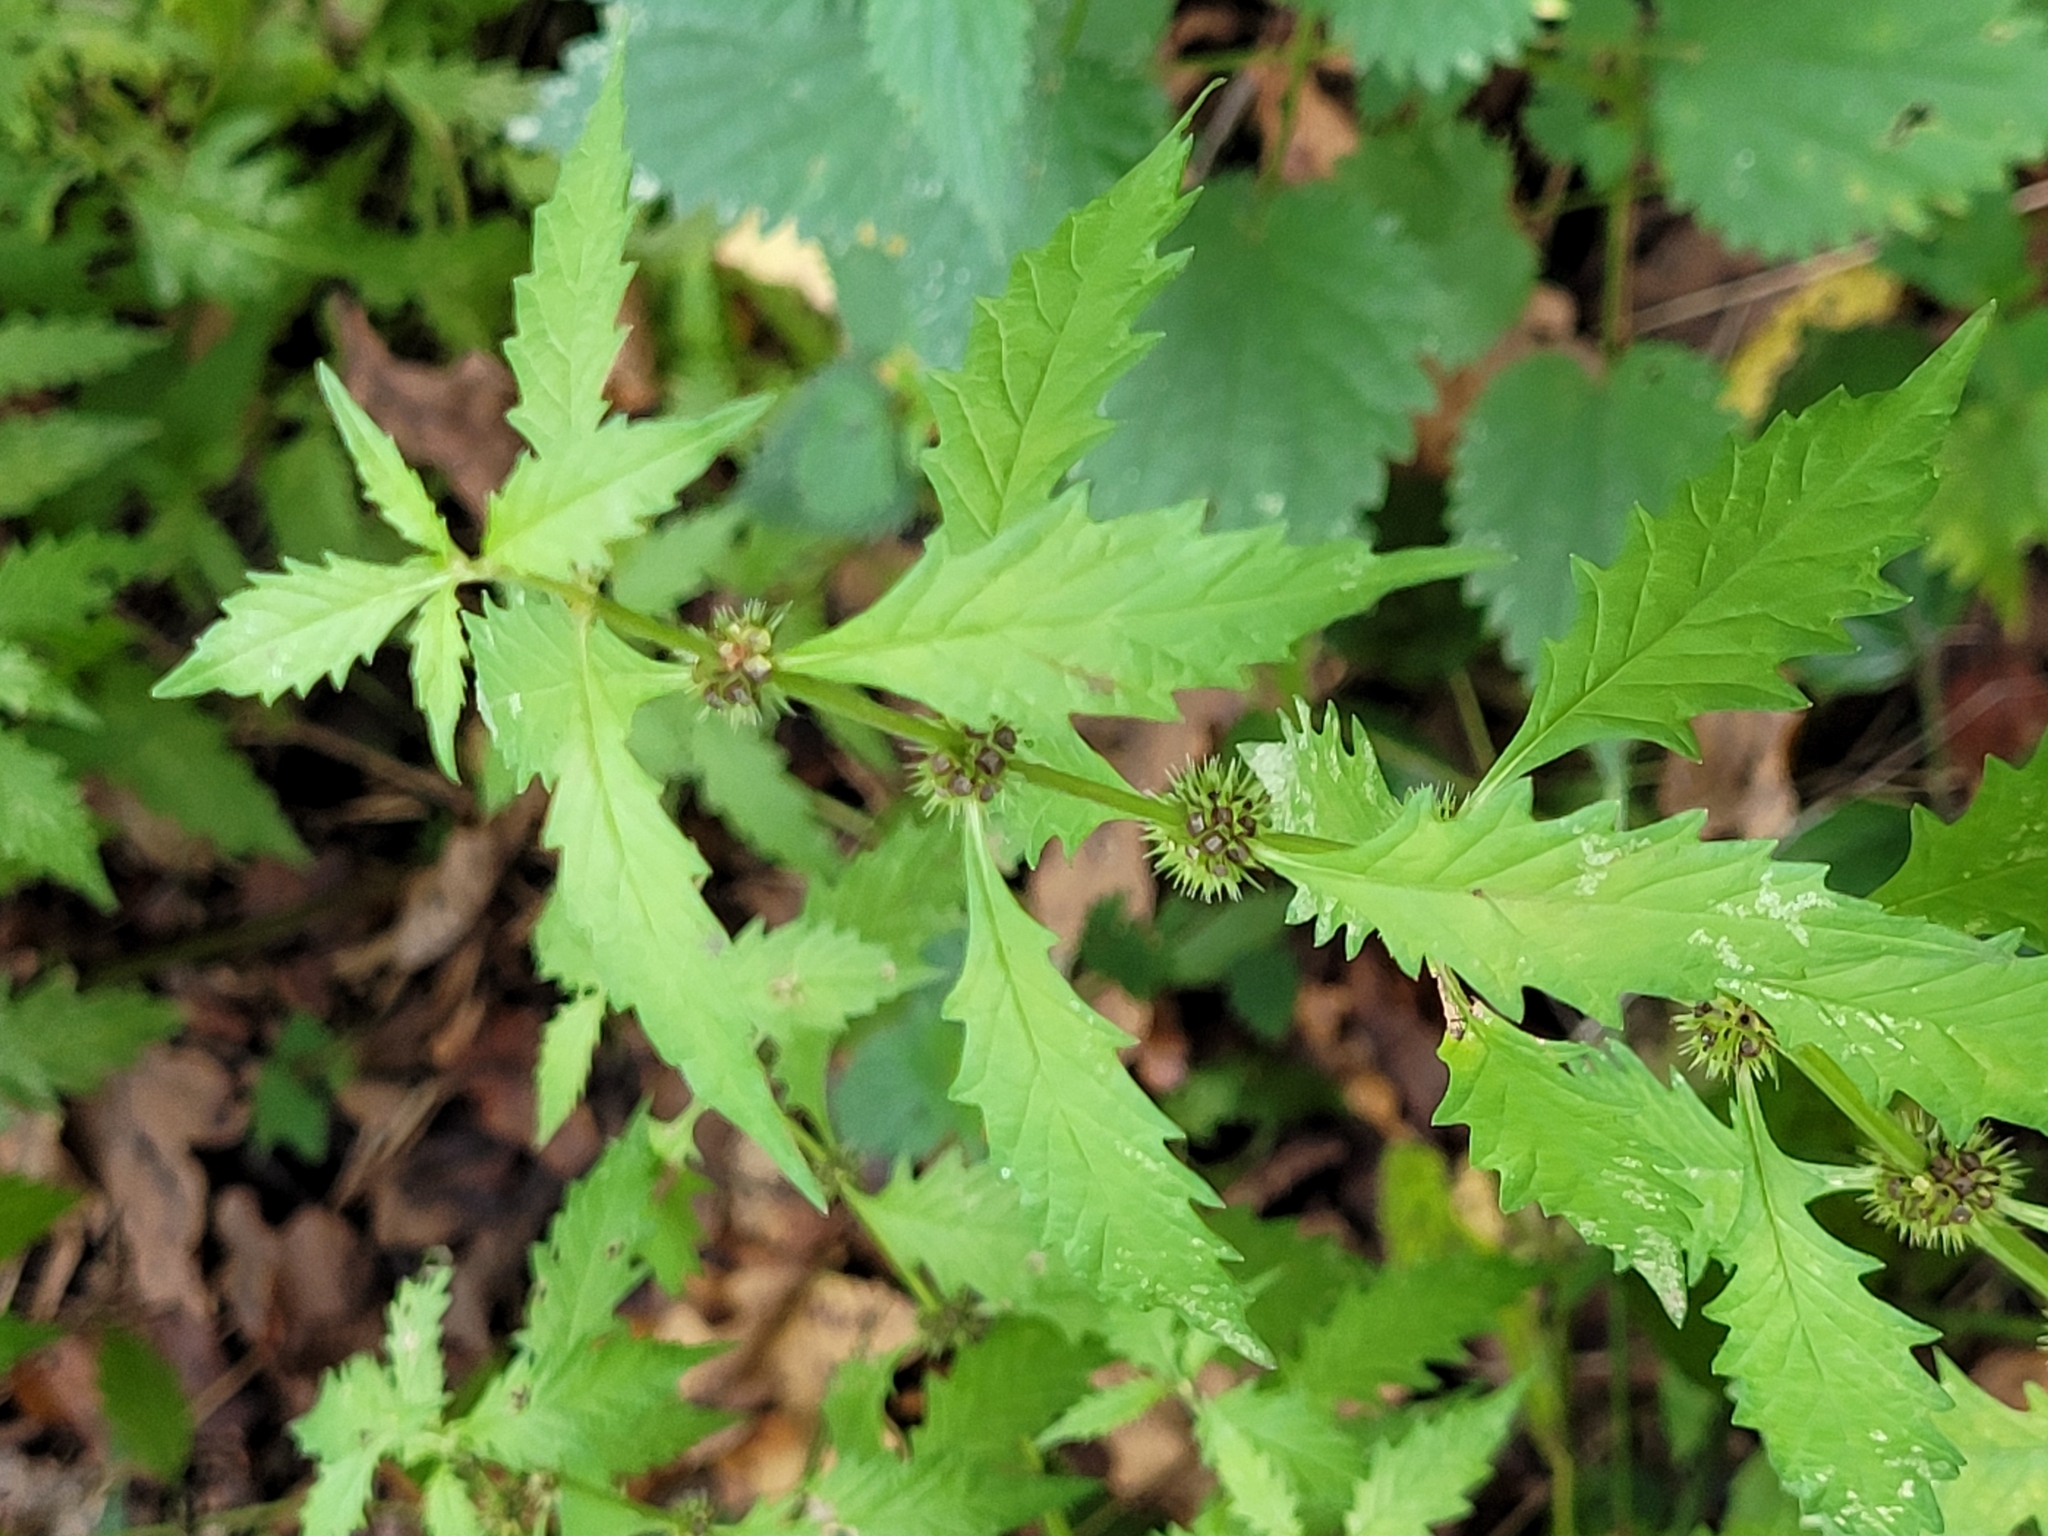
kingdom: Plantae
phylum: Tracheophyta
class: Magnoliopsida
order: Lamiales
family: Lamiaceae
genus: Lycopus
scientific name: Lycopus europaeus
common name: European bugleweed
